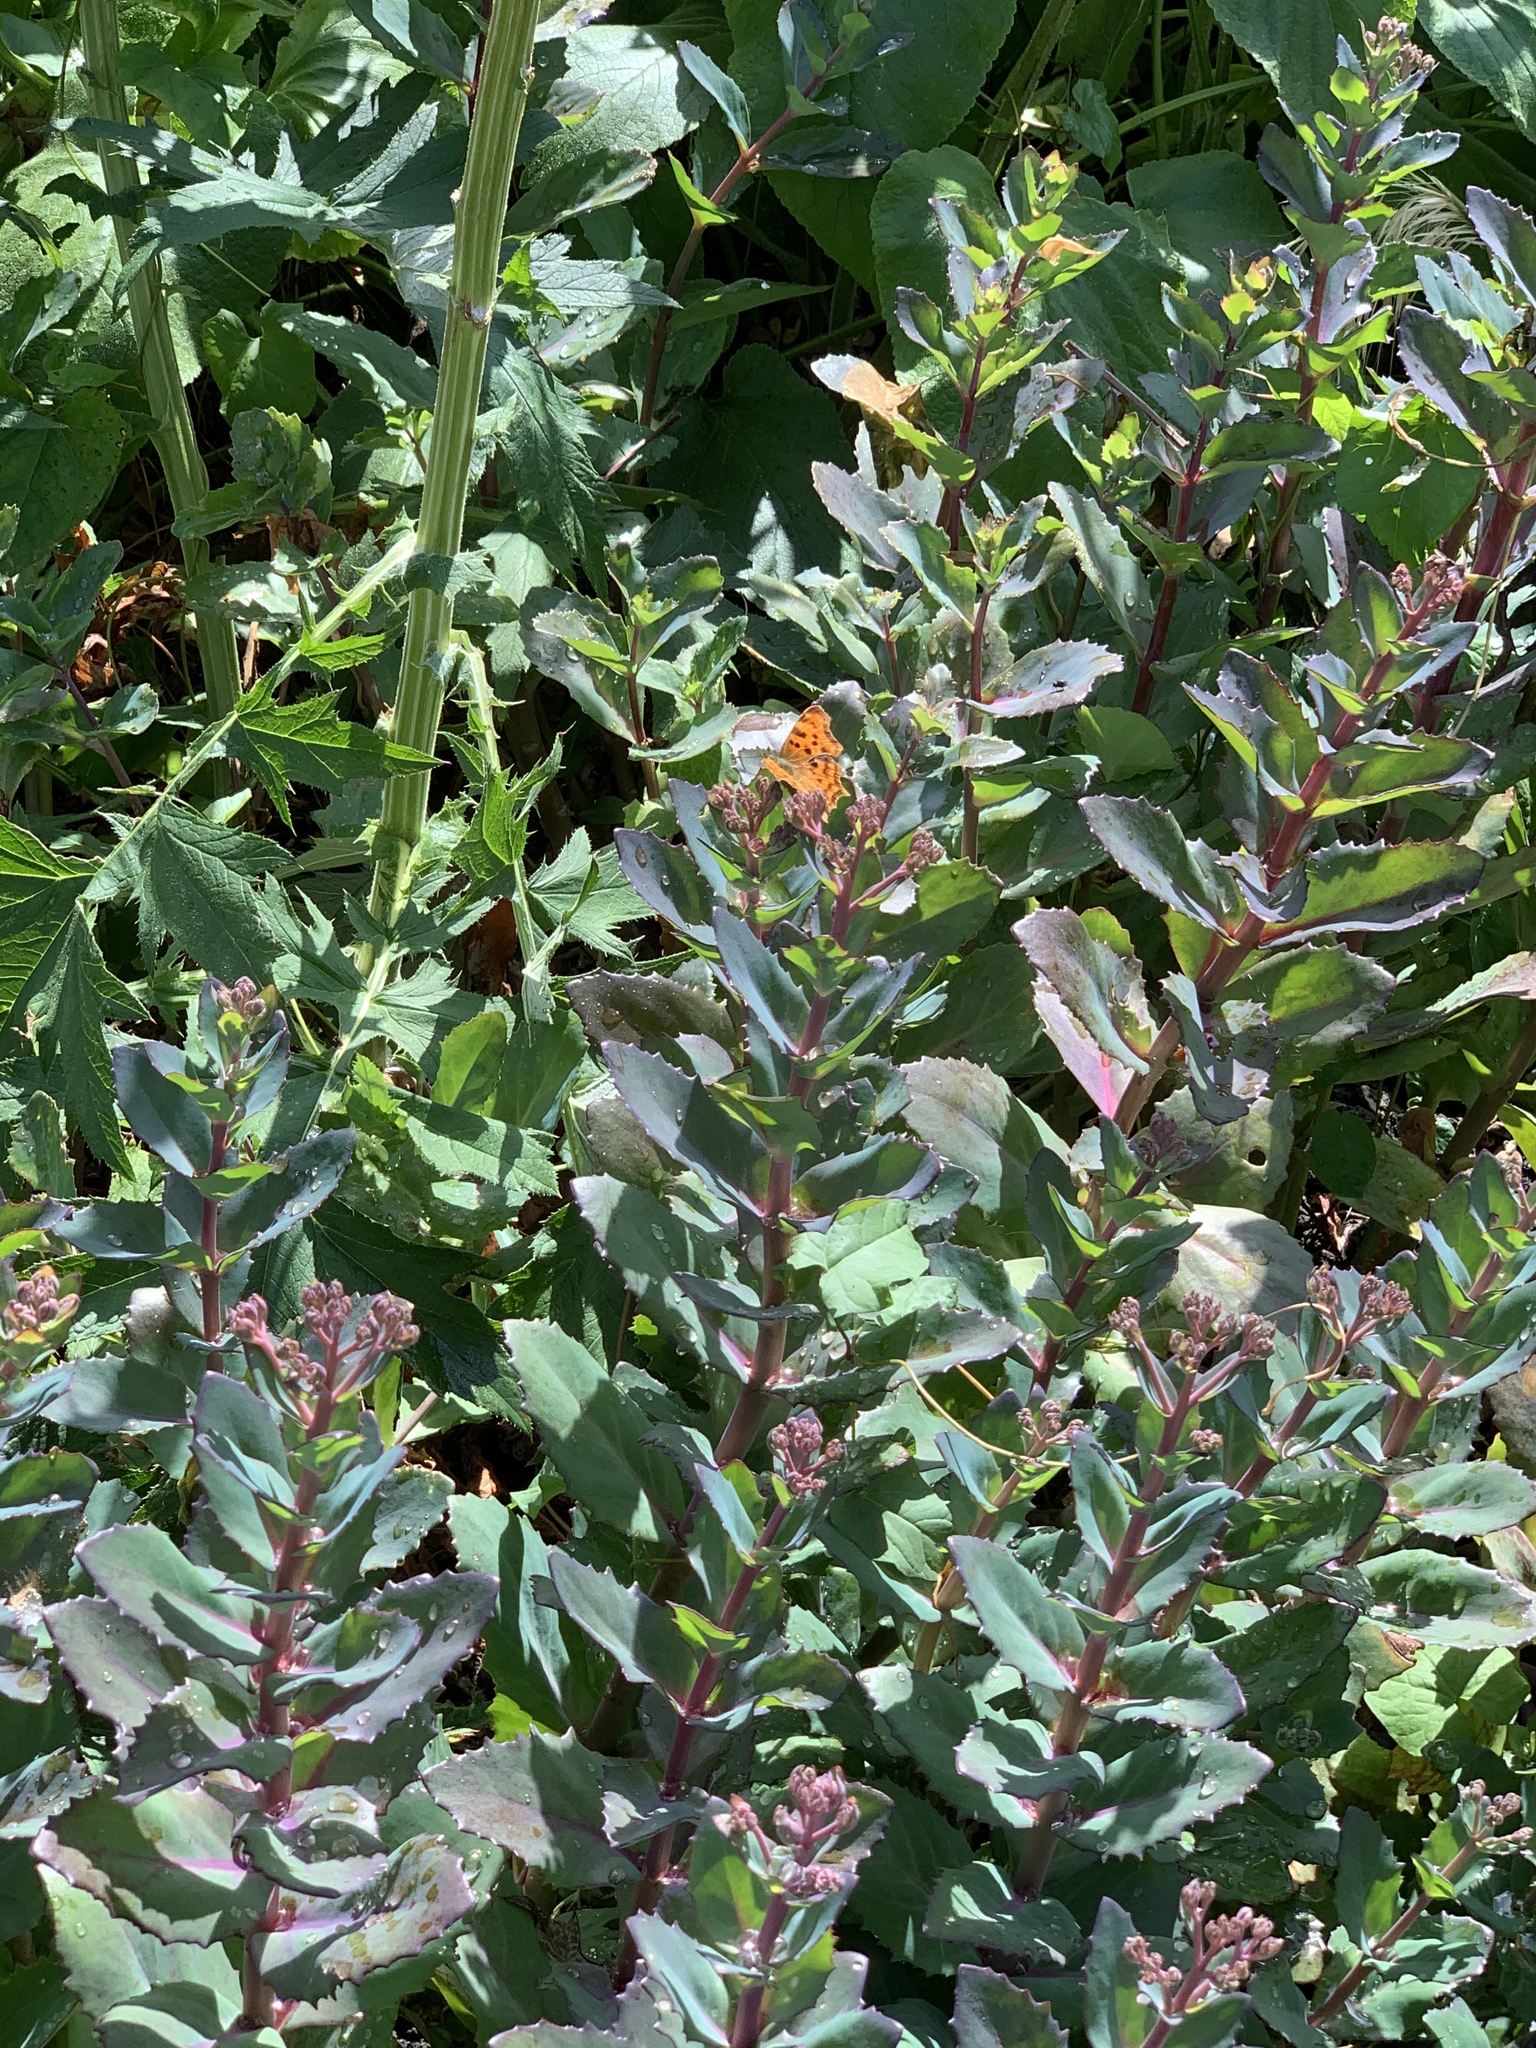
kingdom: Animalia
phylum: Arthropoda
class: Insecta
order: Lepidoptera
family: Nymphalidae
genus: Polygonia
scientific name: Polygonia c-album
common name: Comma
